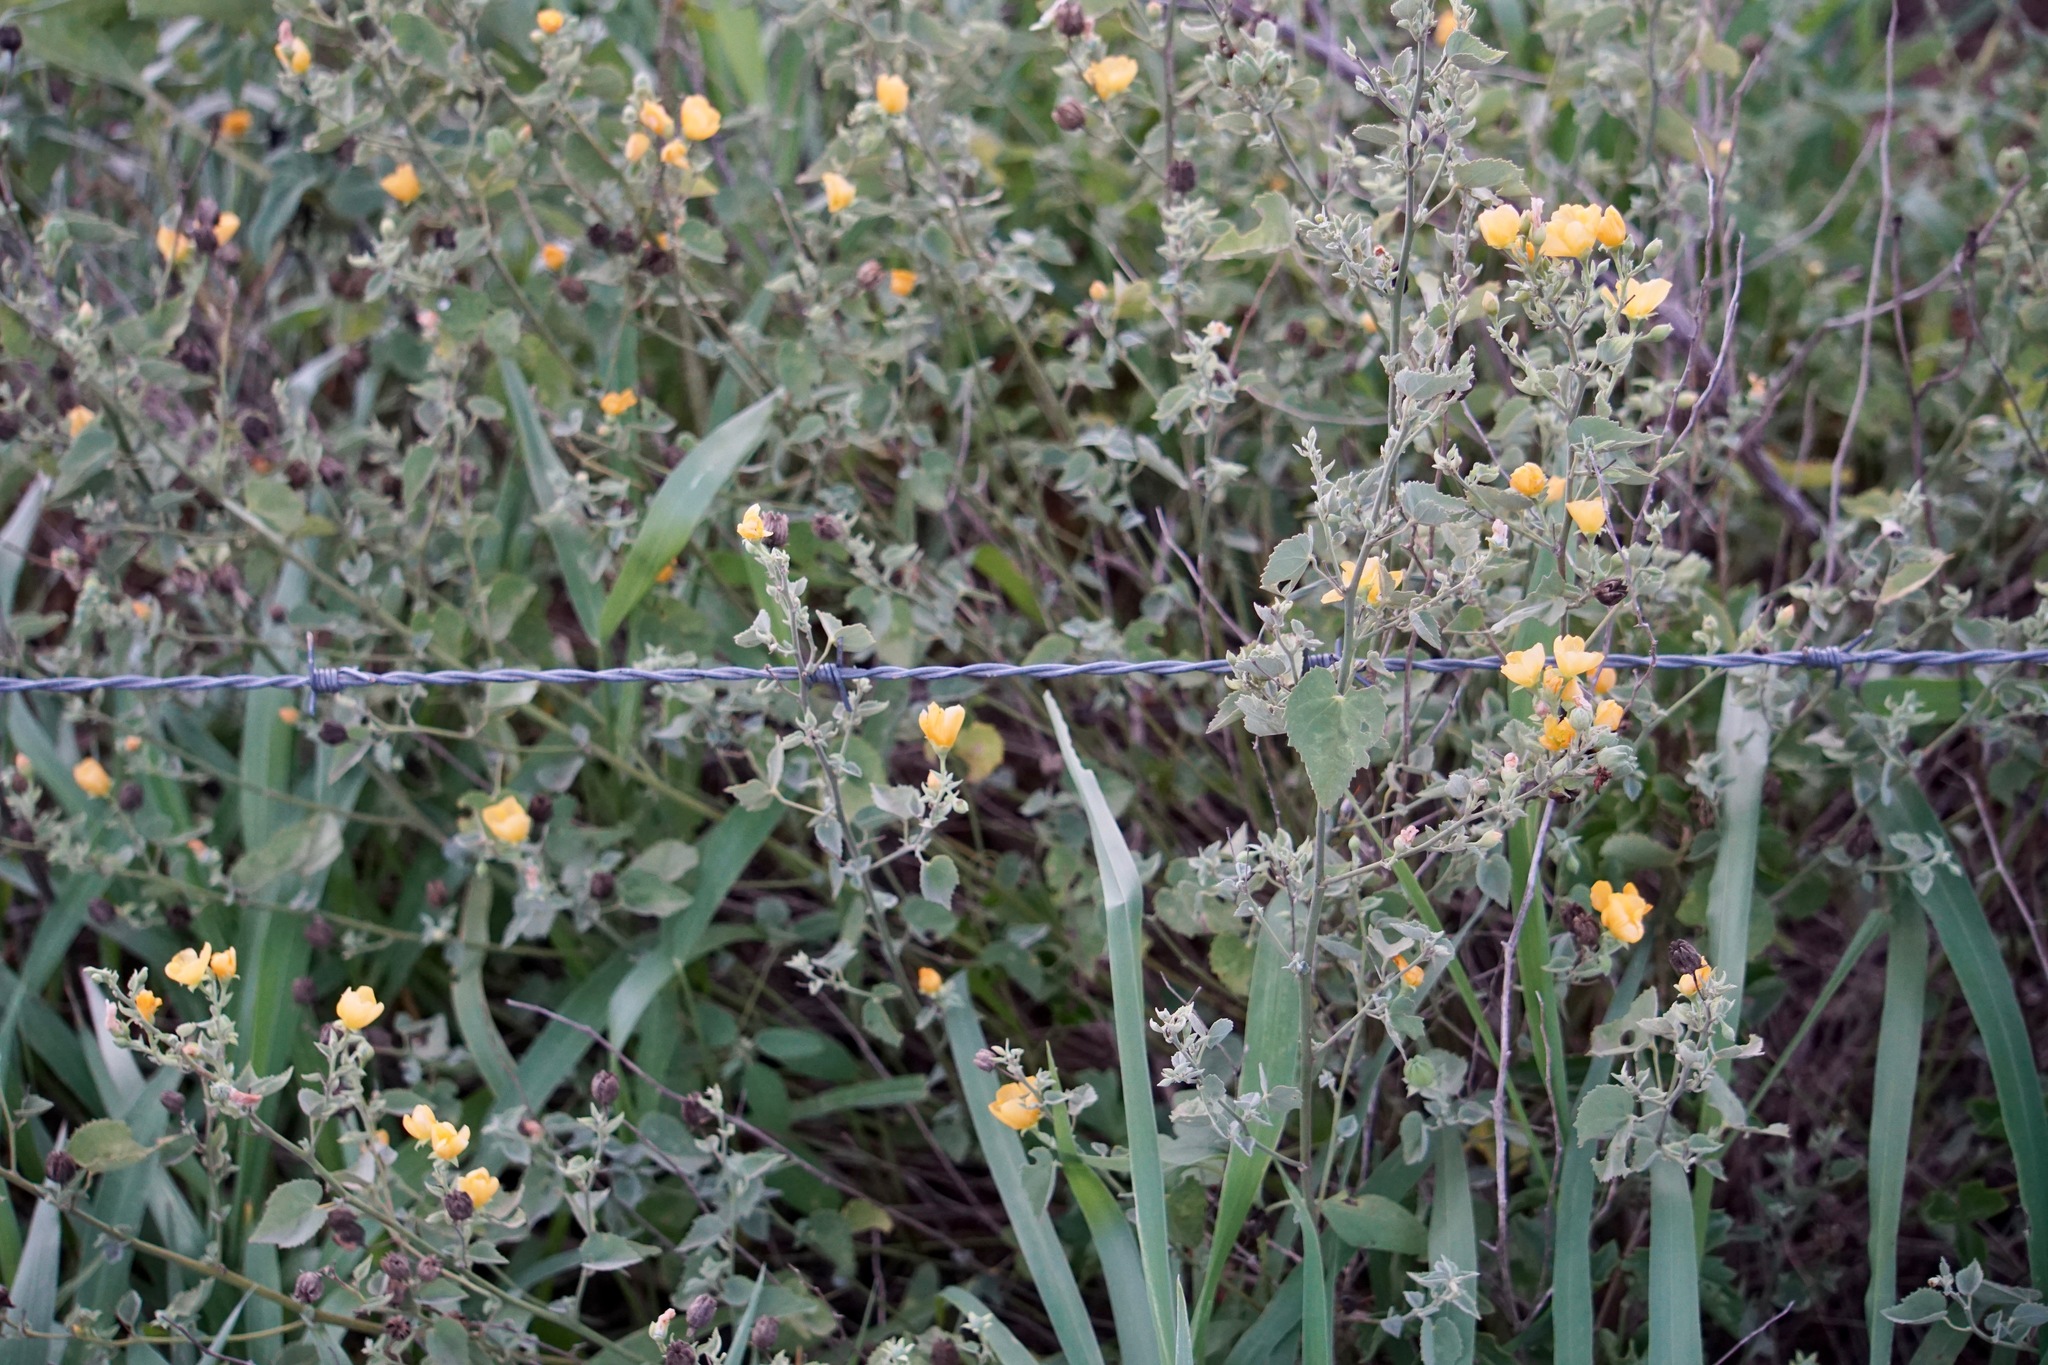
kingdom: Plantae
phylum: Tracheophyta
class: Magnoliopsida
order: Malvales
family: Malvaceae
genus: Abutilon
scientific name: Abutilon fruticosum
